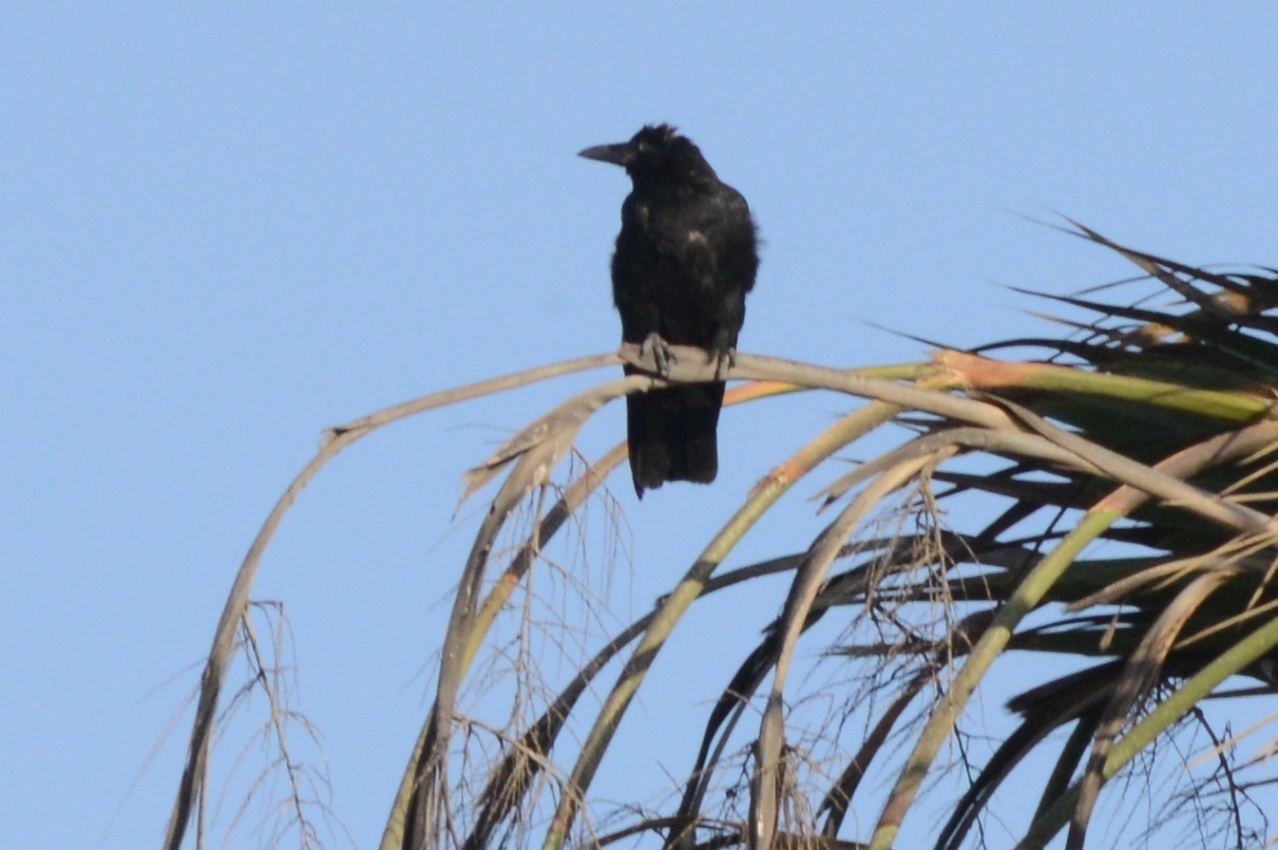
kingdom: Animalia
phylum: Chordata
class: Aves
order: Passeriformes
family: Corvidae
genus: Corvus
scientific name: Corvus brachyrhynchos
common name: American crow
